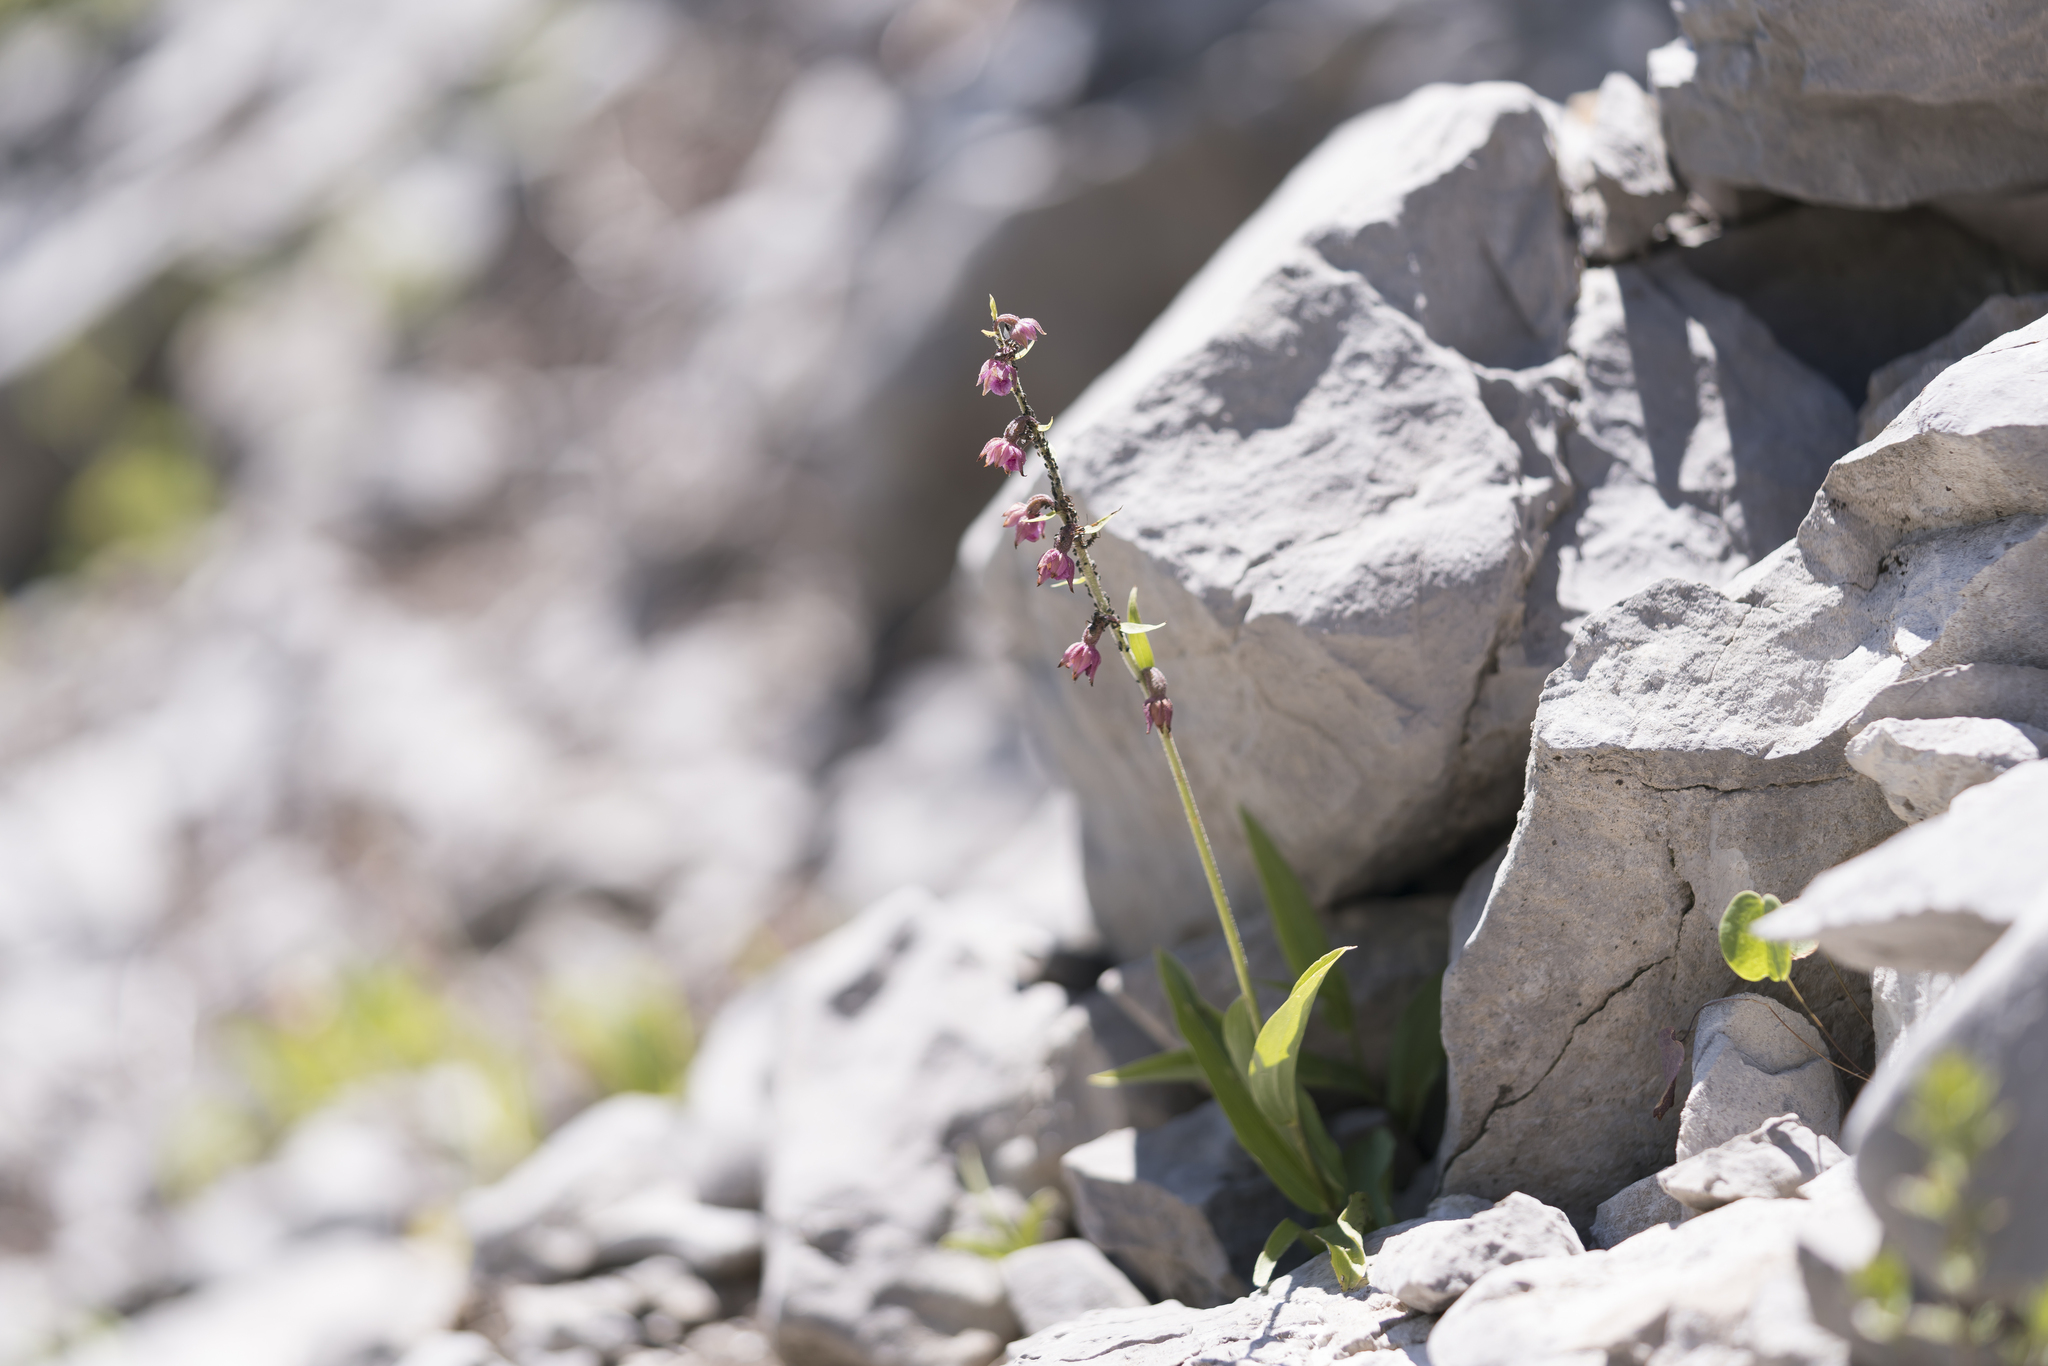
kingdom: Plantae
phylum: Tracheophyta
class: Liliopsida
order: Asparagales
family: Orchidaceae
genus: Epipactis
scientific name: Epipactis atrorubens
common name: Dark-red helleborine
